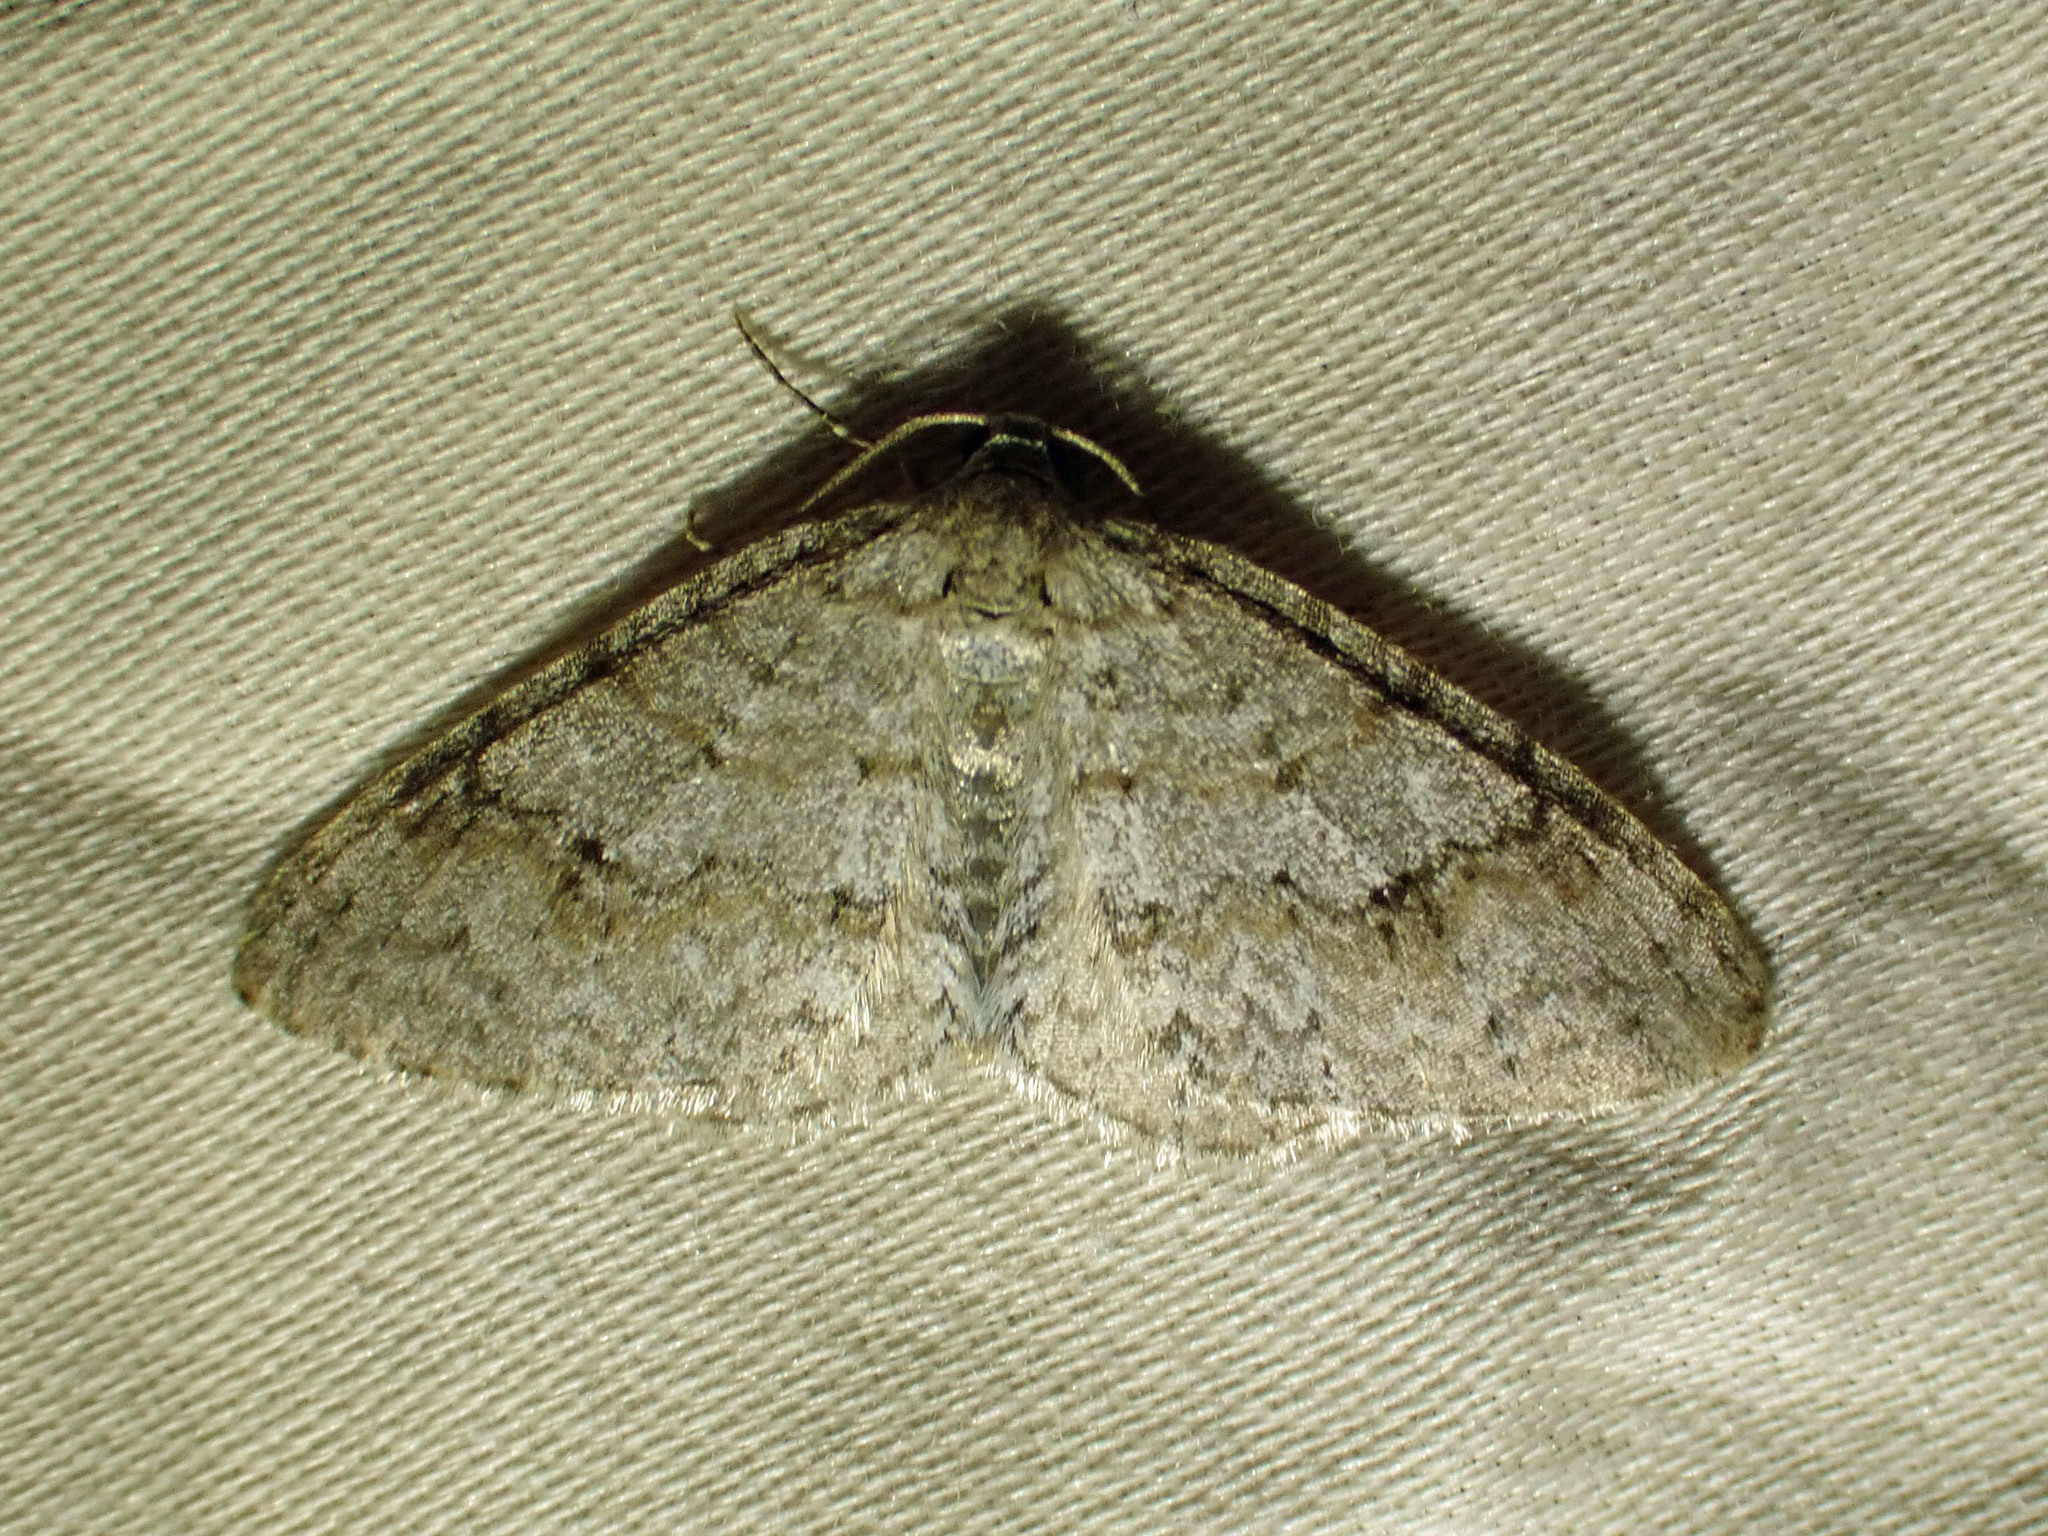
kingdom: Animalia
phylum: Arthropoda
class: Insecta
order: Lepidoptera
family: Geometridae
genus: Venusia
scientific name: Venusia comptaria
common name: Brown-shaded carpet
